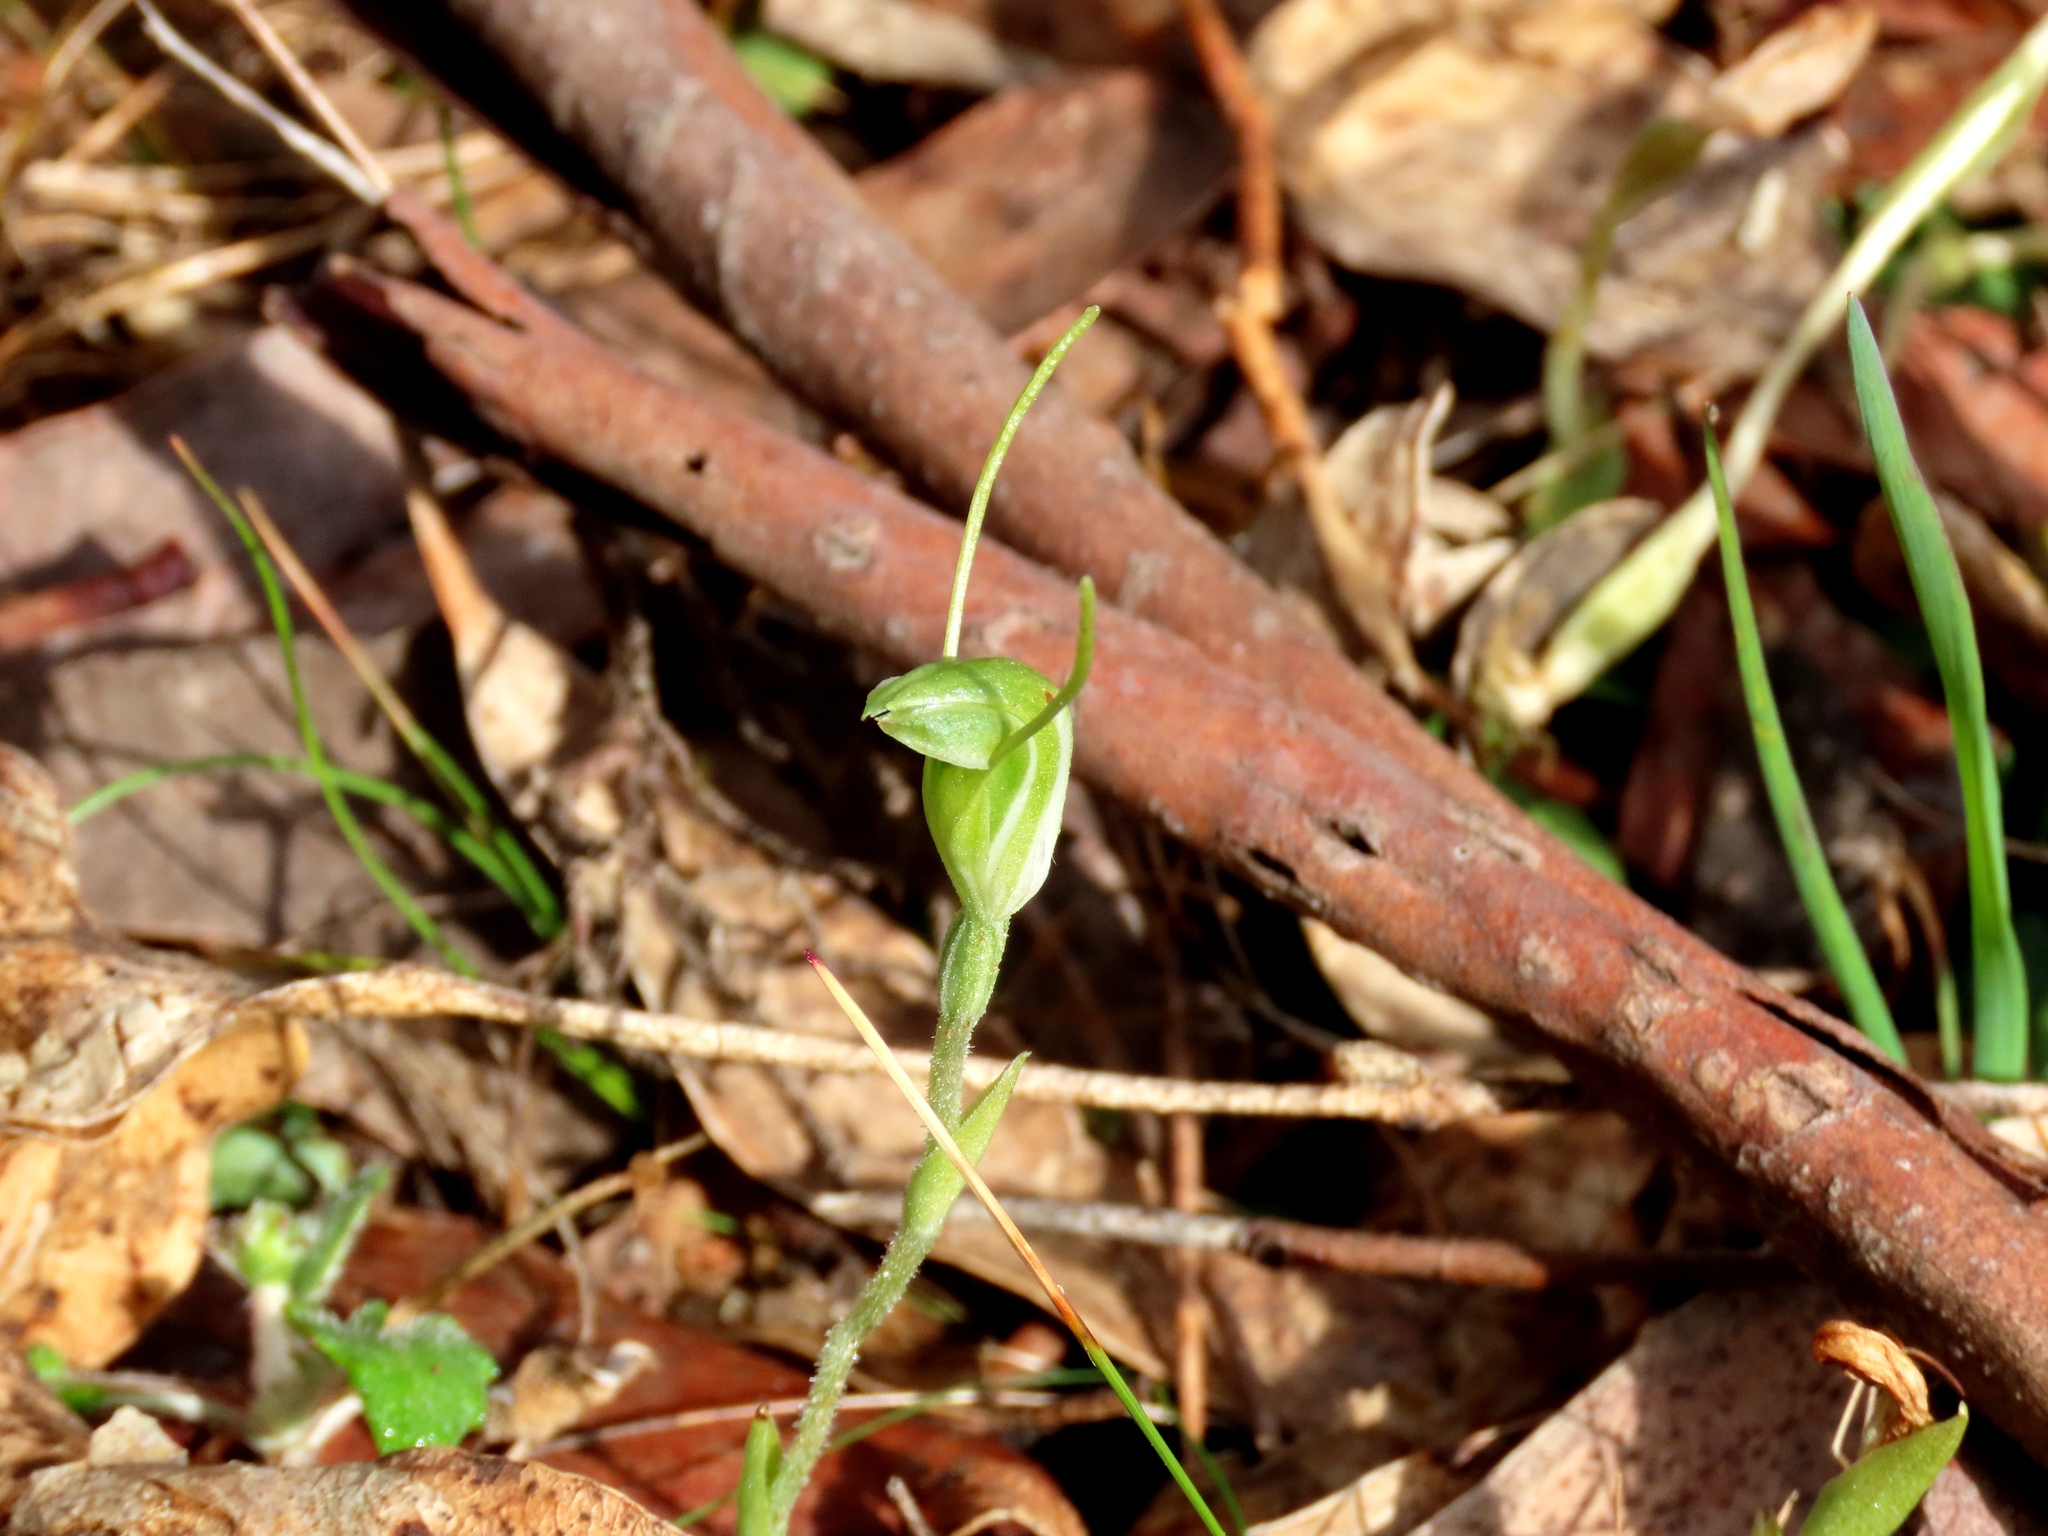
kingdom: Plantae
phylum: Tracheophyta
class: Liliopsida
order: Asparagales
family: Orchidaceae
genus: Pterostylis
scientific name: Pterostylis nana
